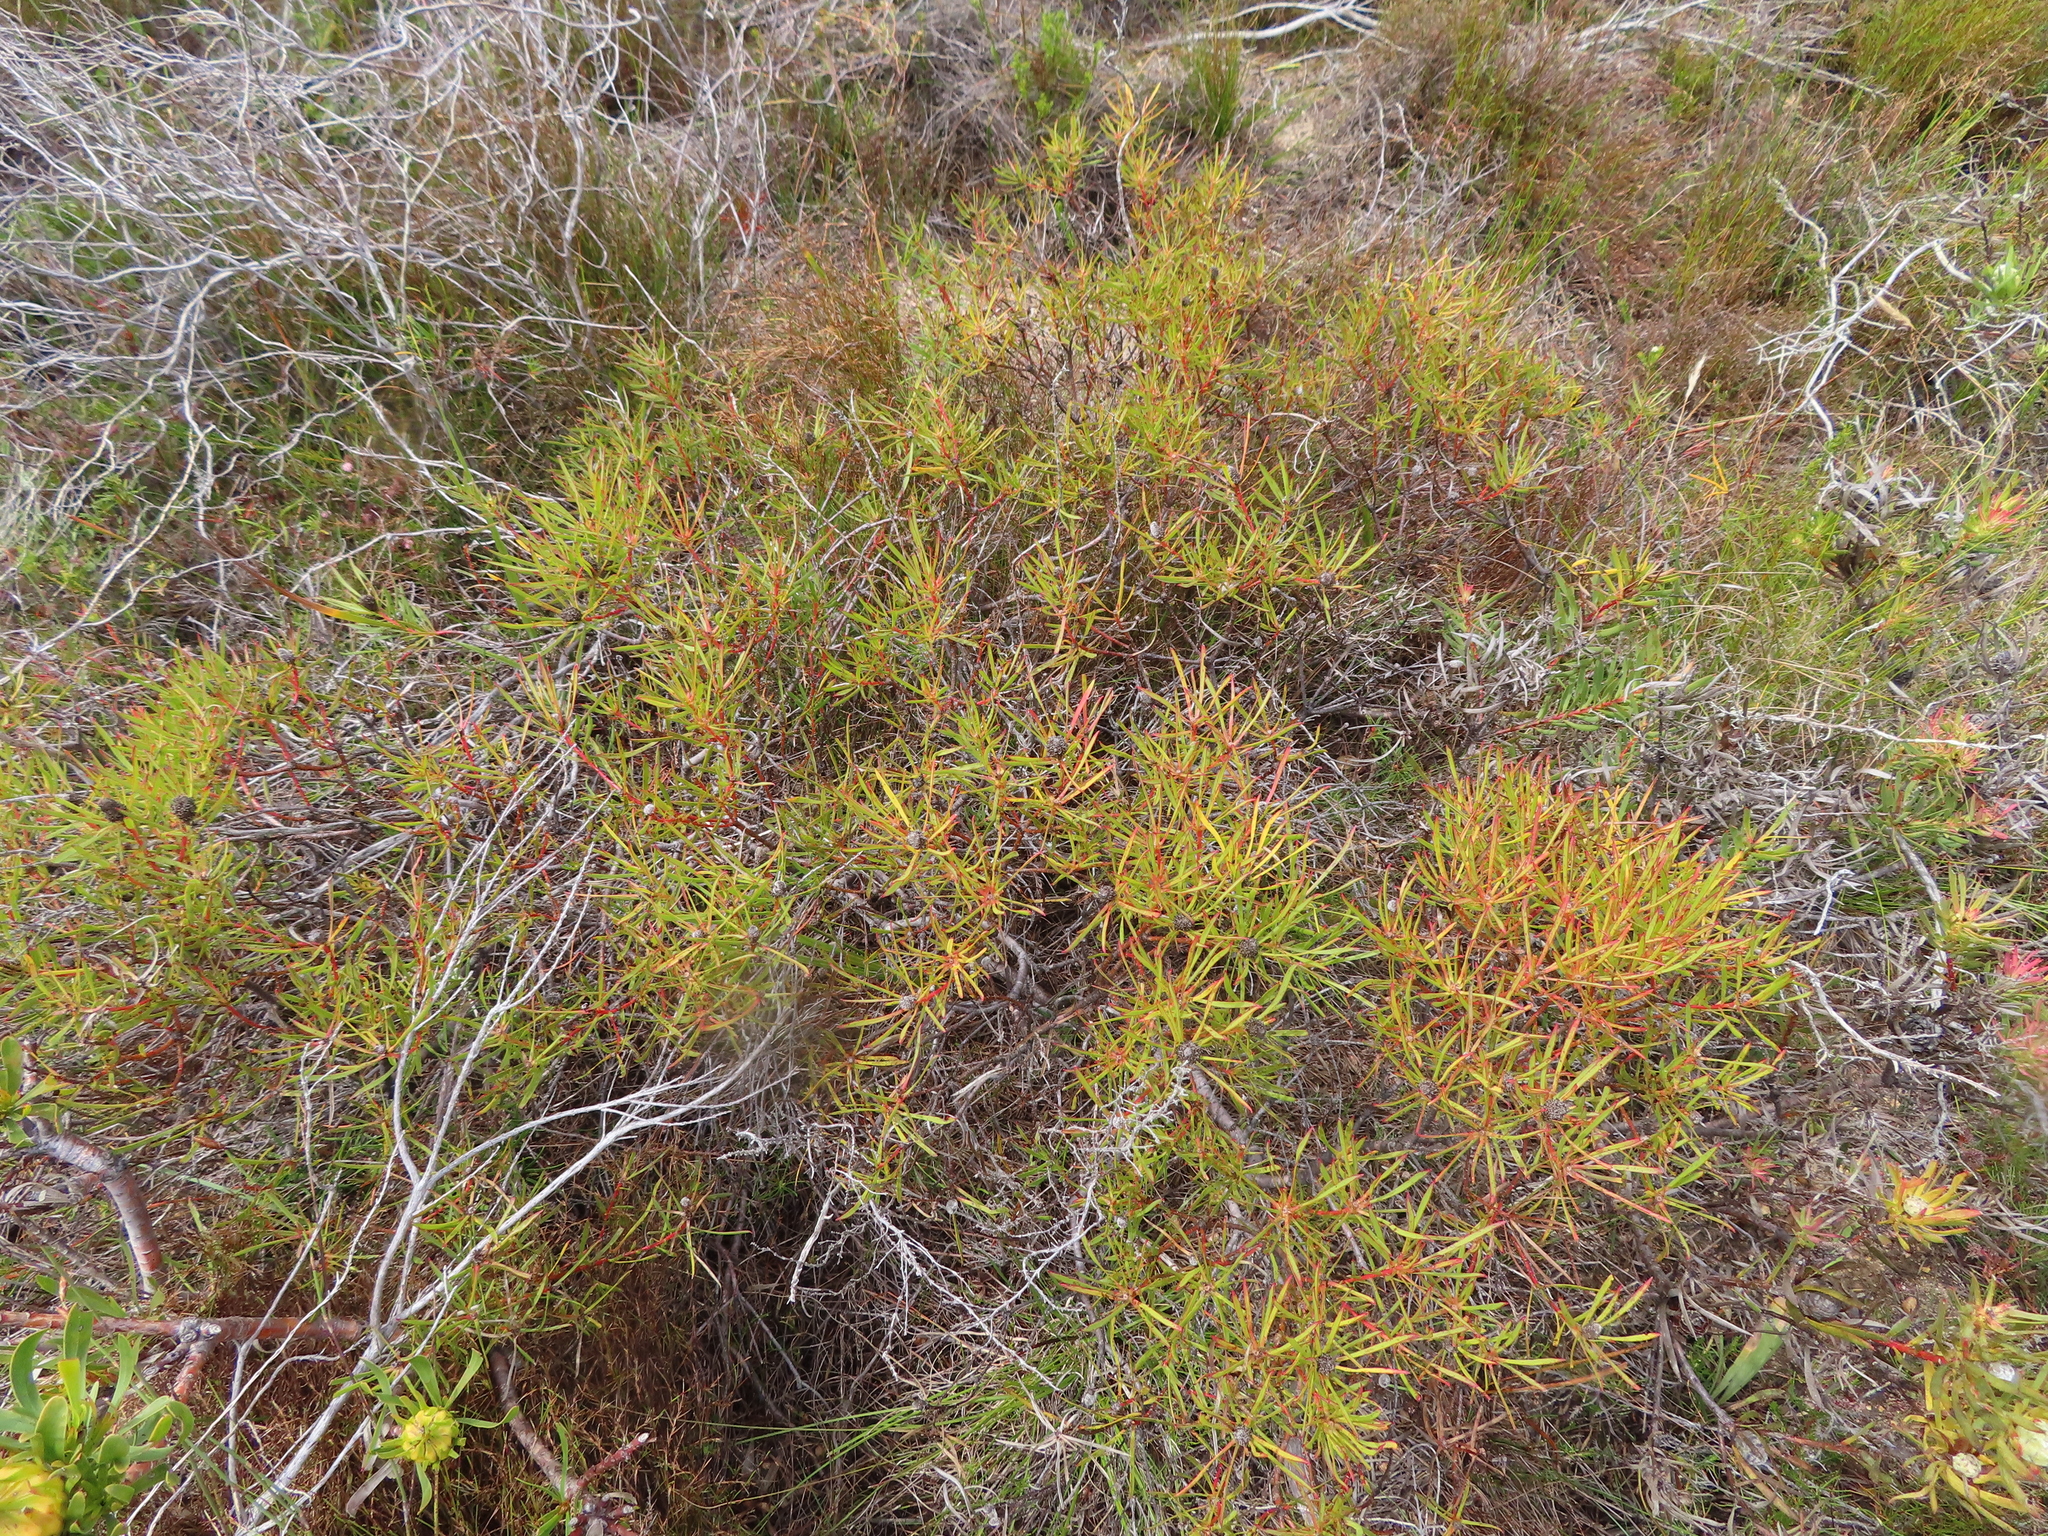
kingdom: Plantae
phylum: Tracheophyta
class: Magnoliopsida
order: Proteales
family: Proteaceae
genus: Leucadendron
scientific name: Leucadendron salignum
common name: Common sunshine conebush
